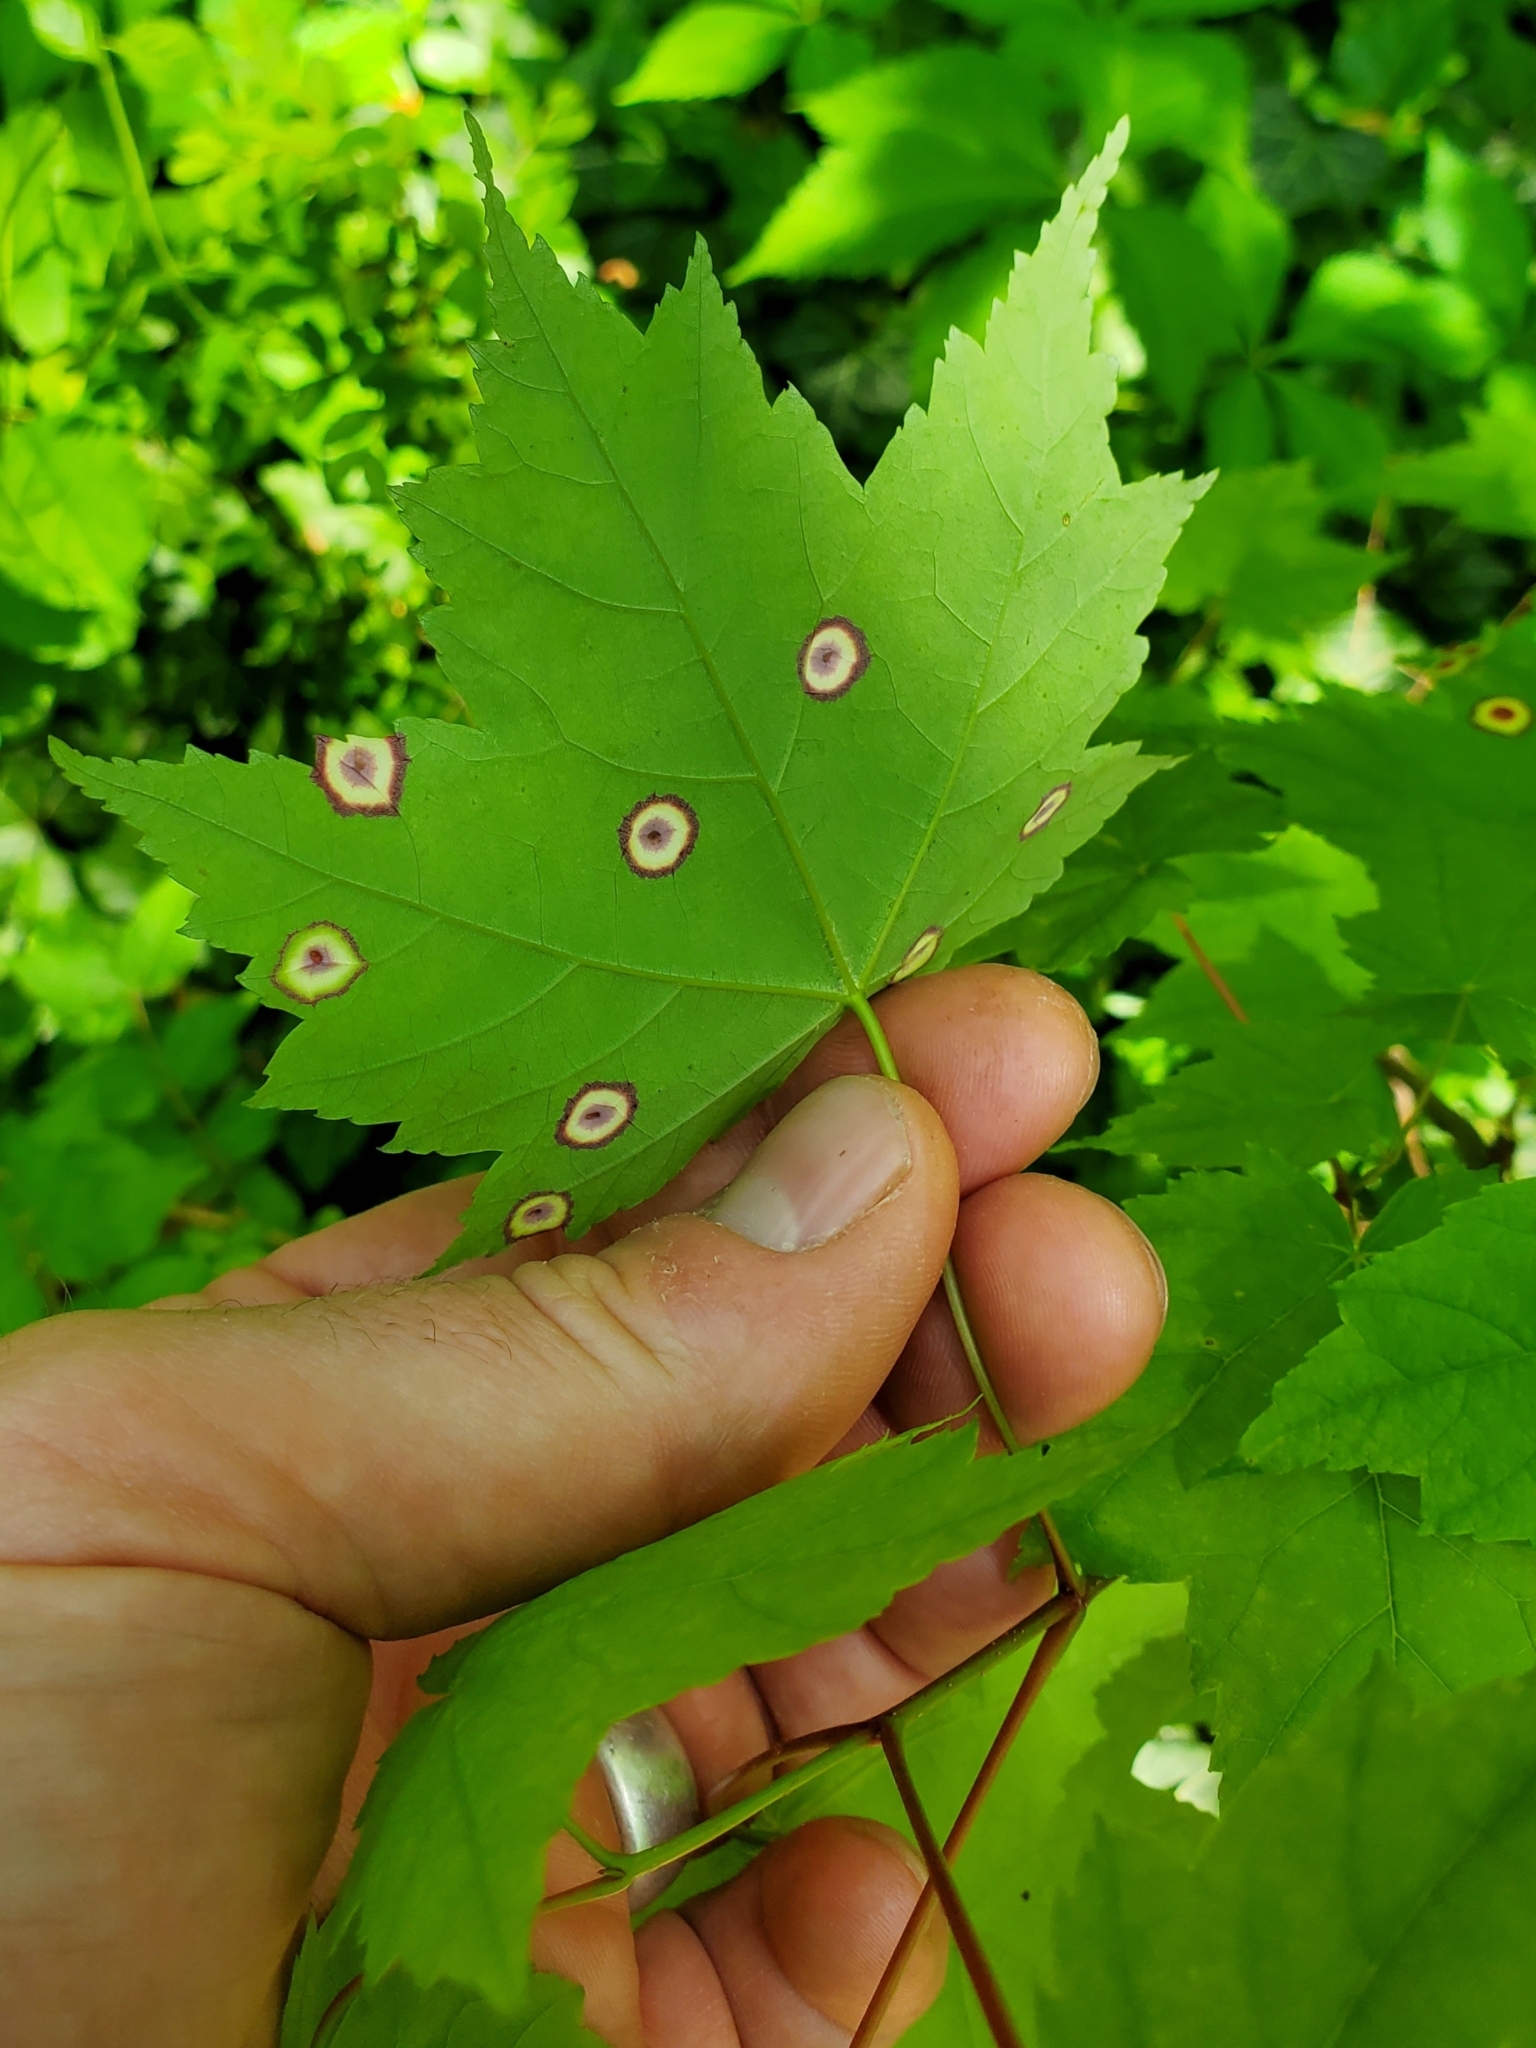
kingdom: Animalia
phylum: Arthropoda
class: Insecta
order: Diptera
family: Cecidomyiidae
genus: Acericecis
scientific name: Acericecis ocellaris
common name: Ocellate gall midge
